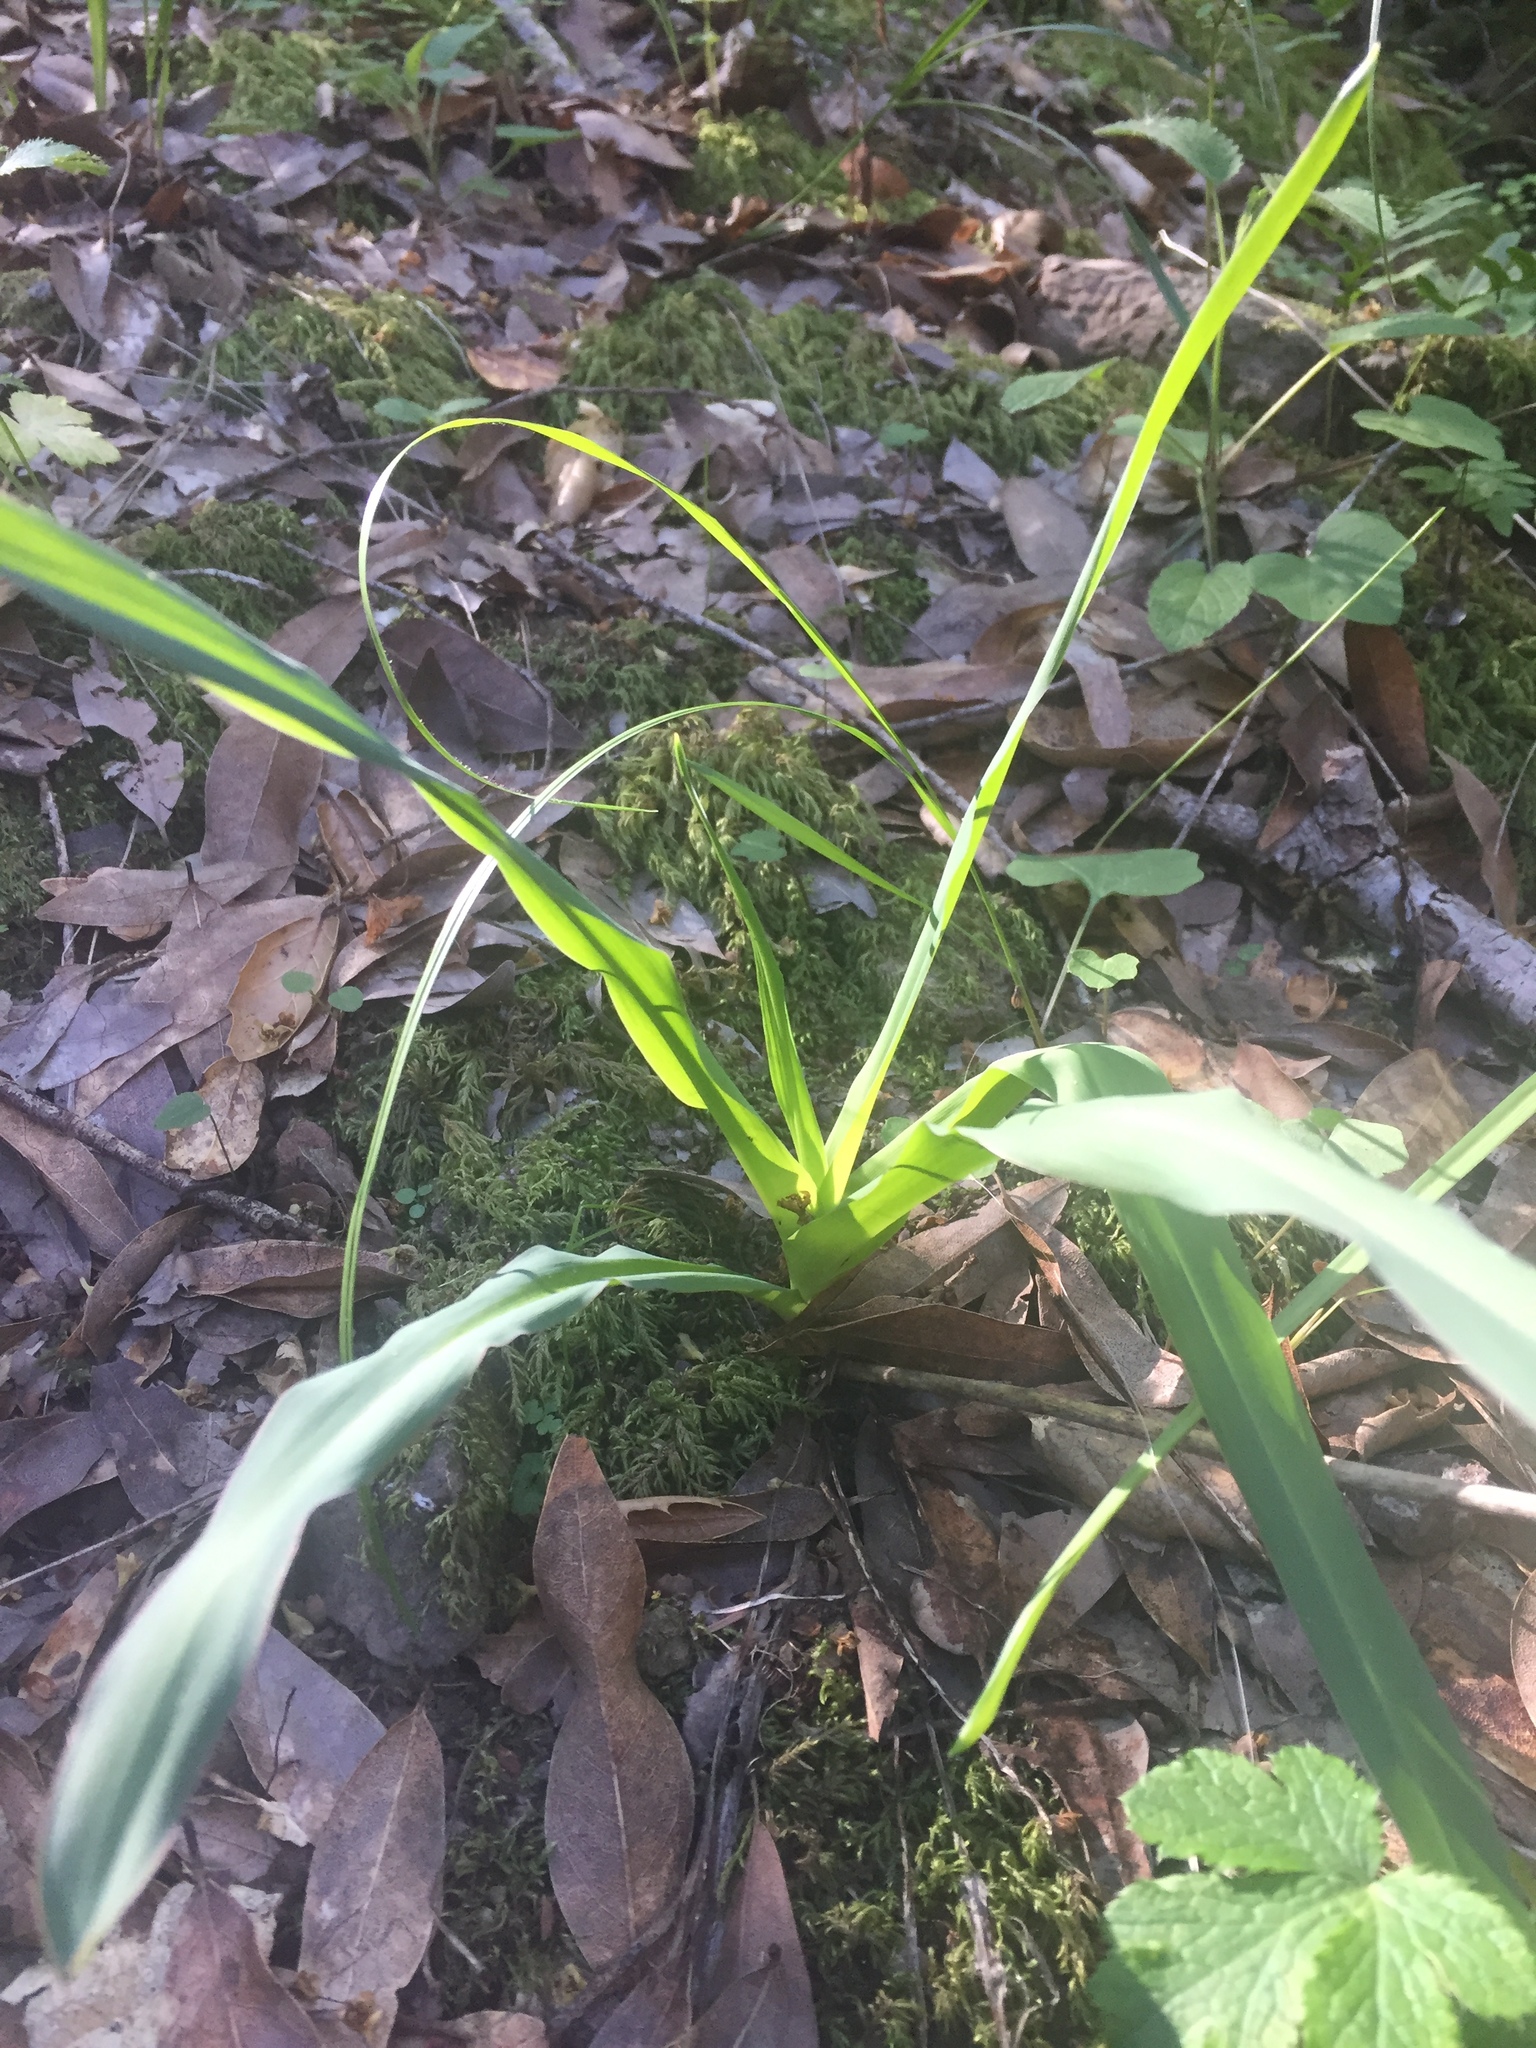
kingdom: Plantae
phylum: Tracheophyta
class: Liliopsida
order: Asparagales
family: Asparagaceae
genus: Chlorogalum
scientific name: Chlorogalum pomeridianum
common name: Amole
